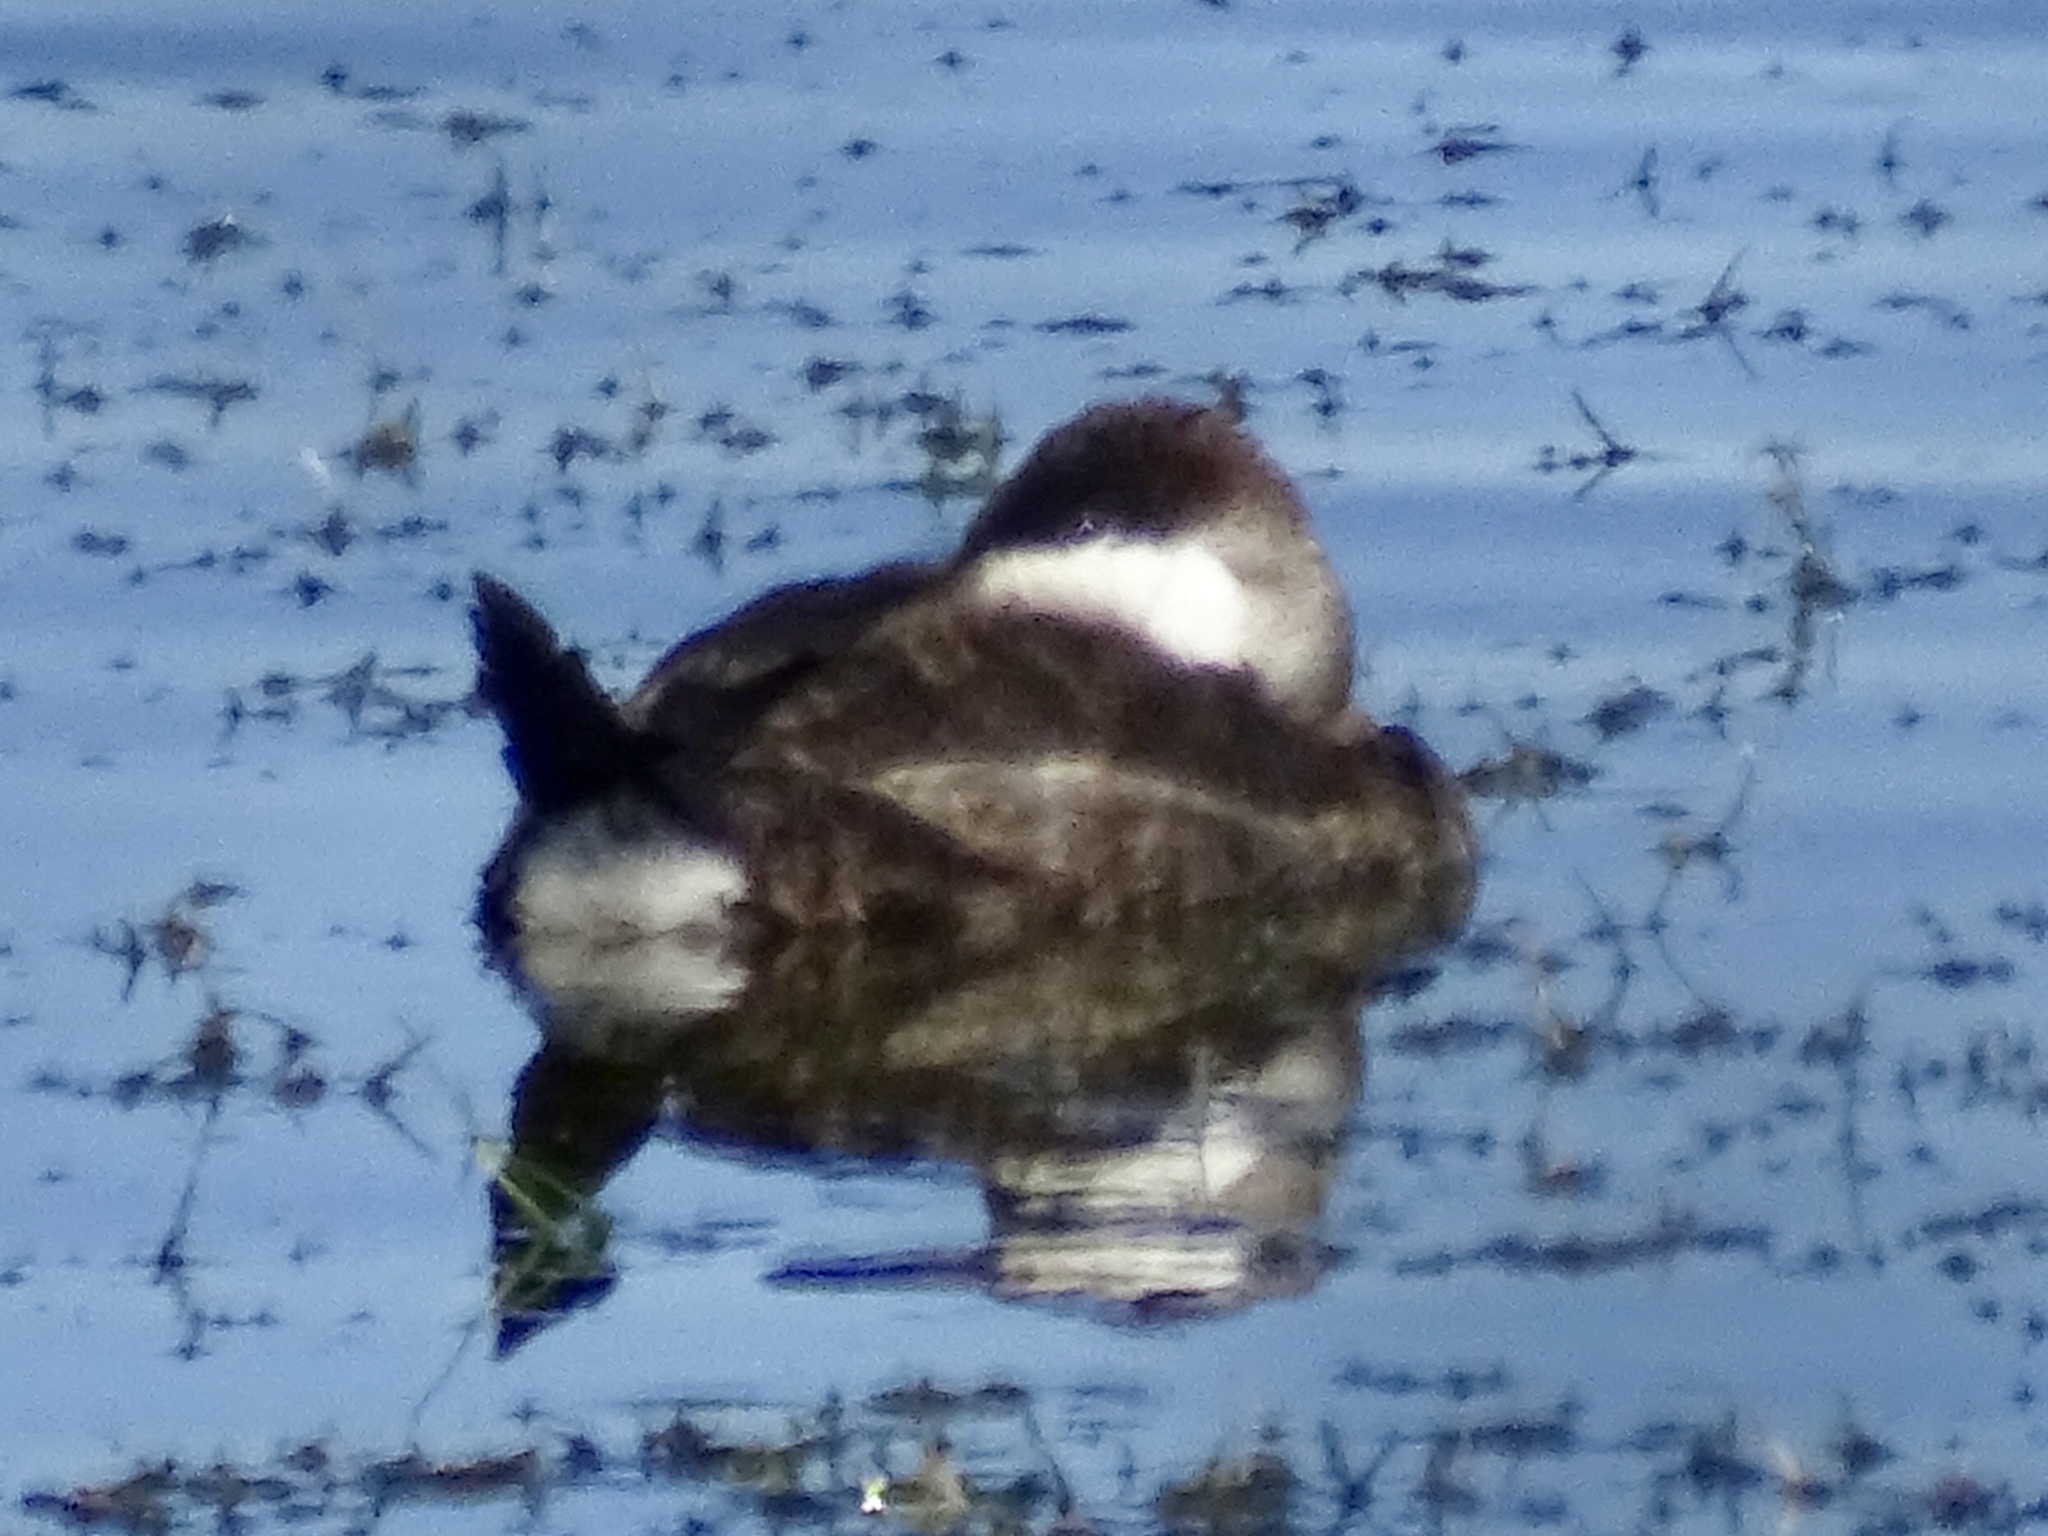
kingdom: Animalia
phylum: Chordata
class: Aves
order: Anseriformes
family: Anatidae
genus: Oxyura
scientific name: Oxyura jamaicensis
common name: Ruddy duck
